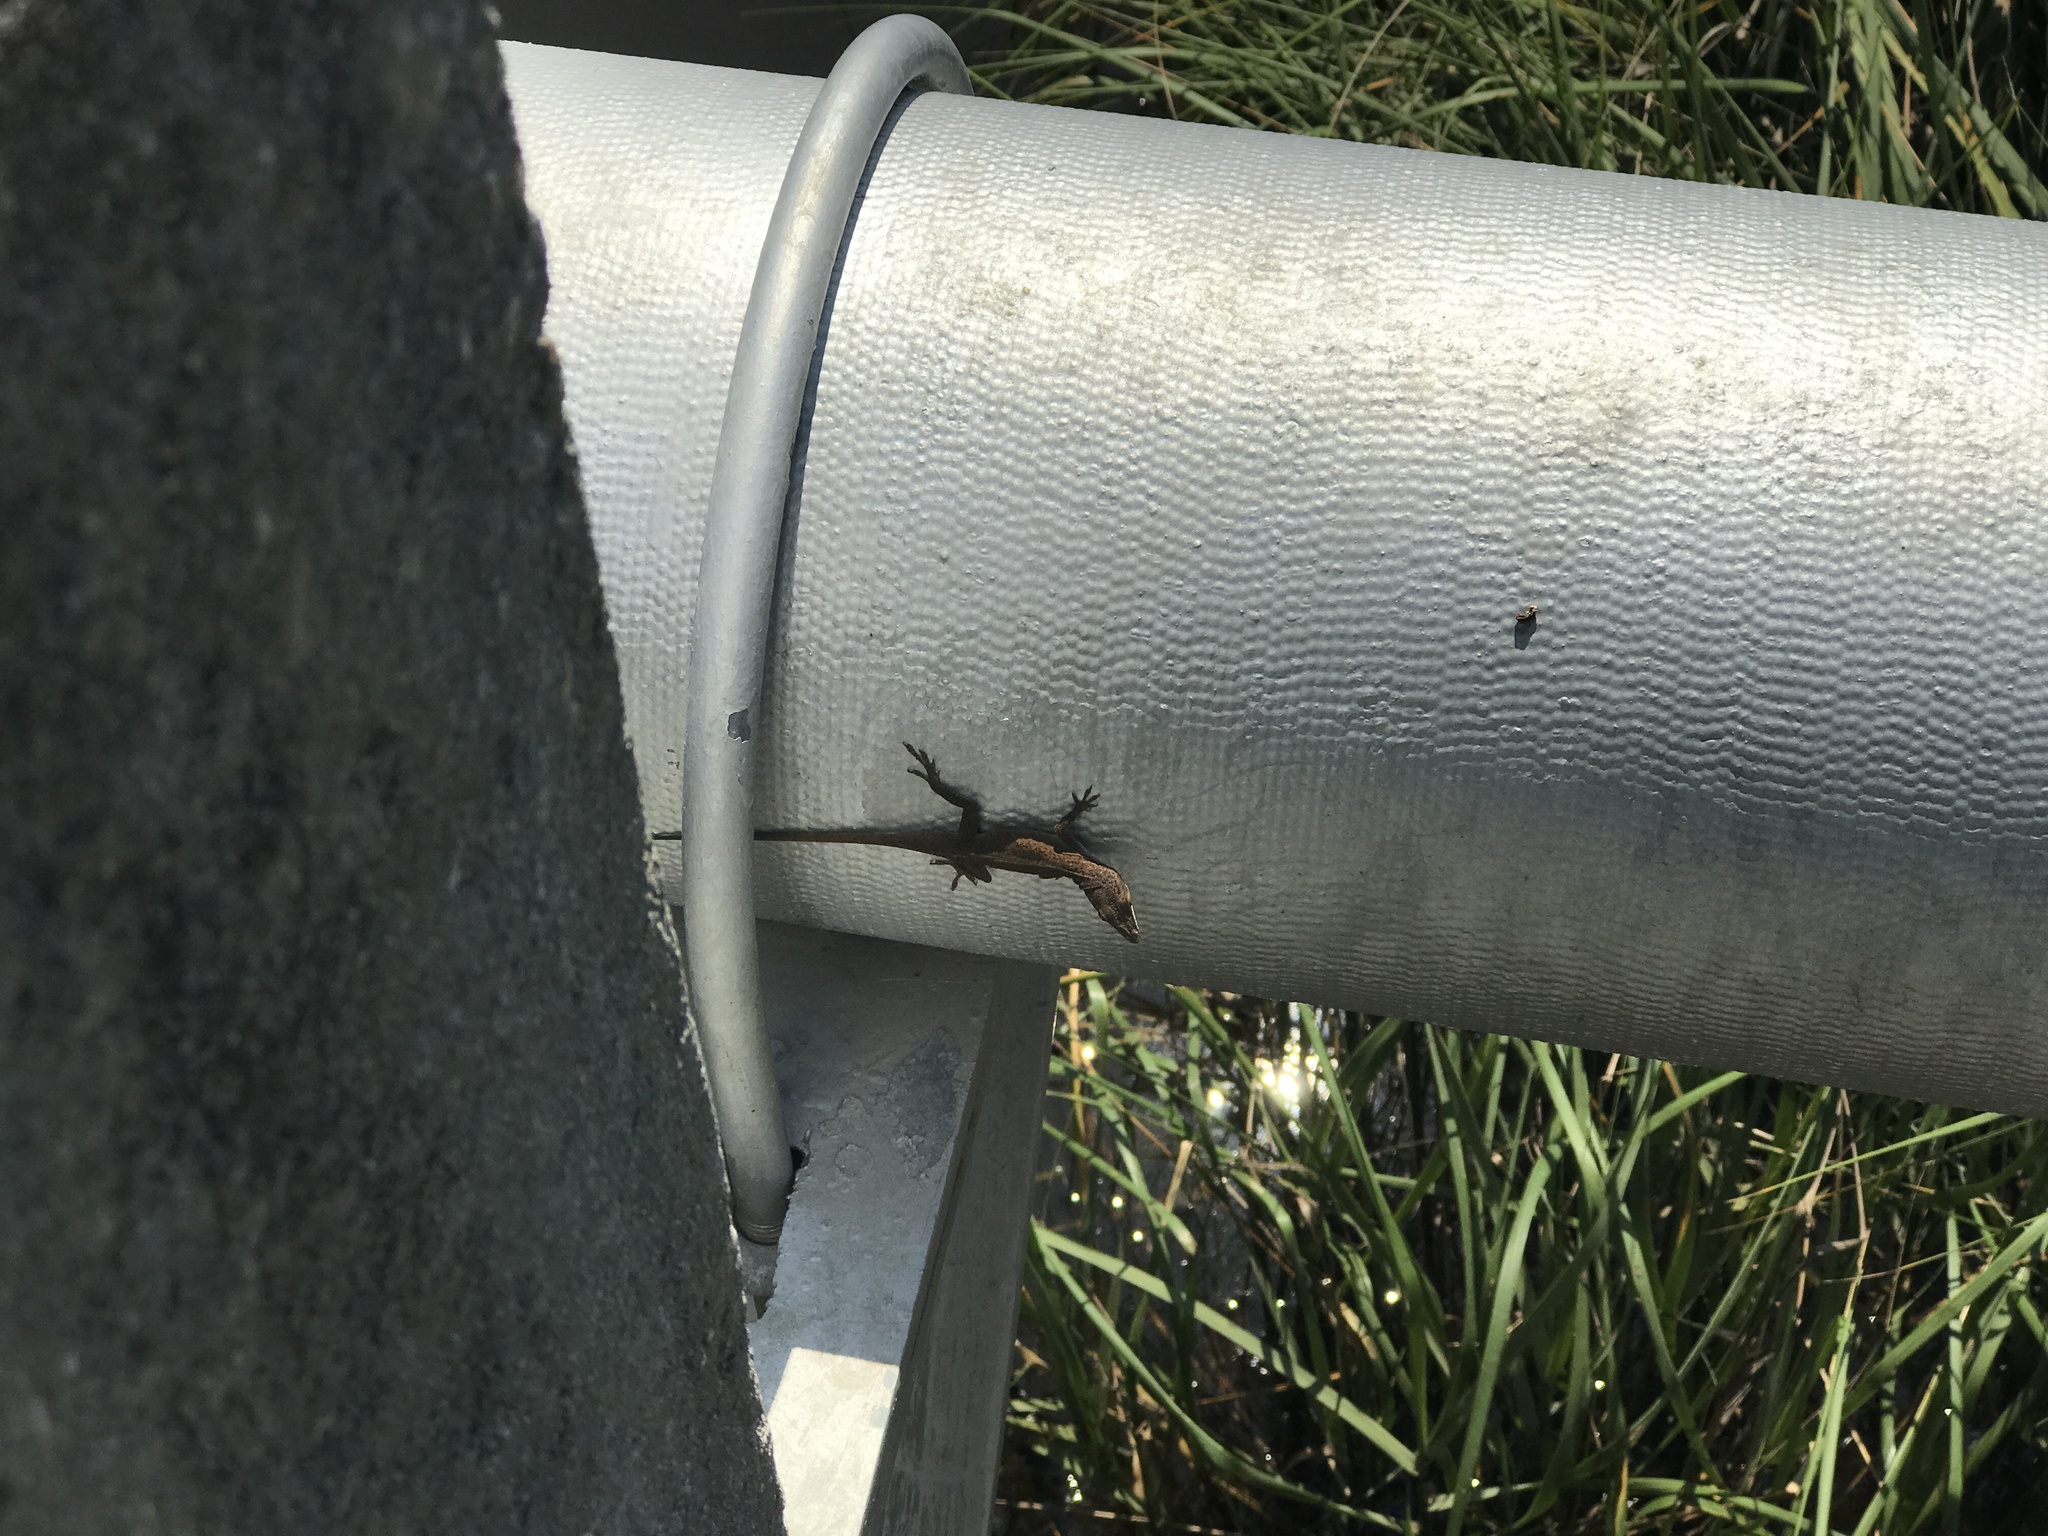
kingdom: Animalia
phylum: Chordata
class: Squamata
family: Dactyloidae
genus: Anolis
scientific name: Anolis carolinensis
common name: Green anole
